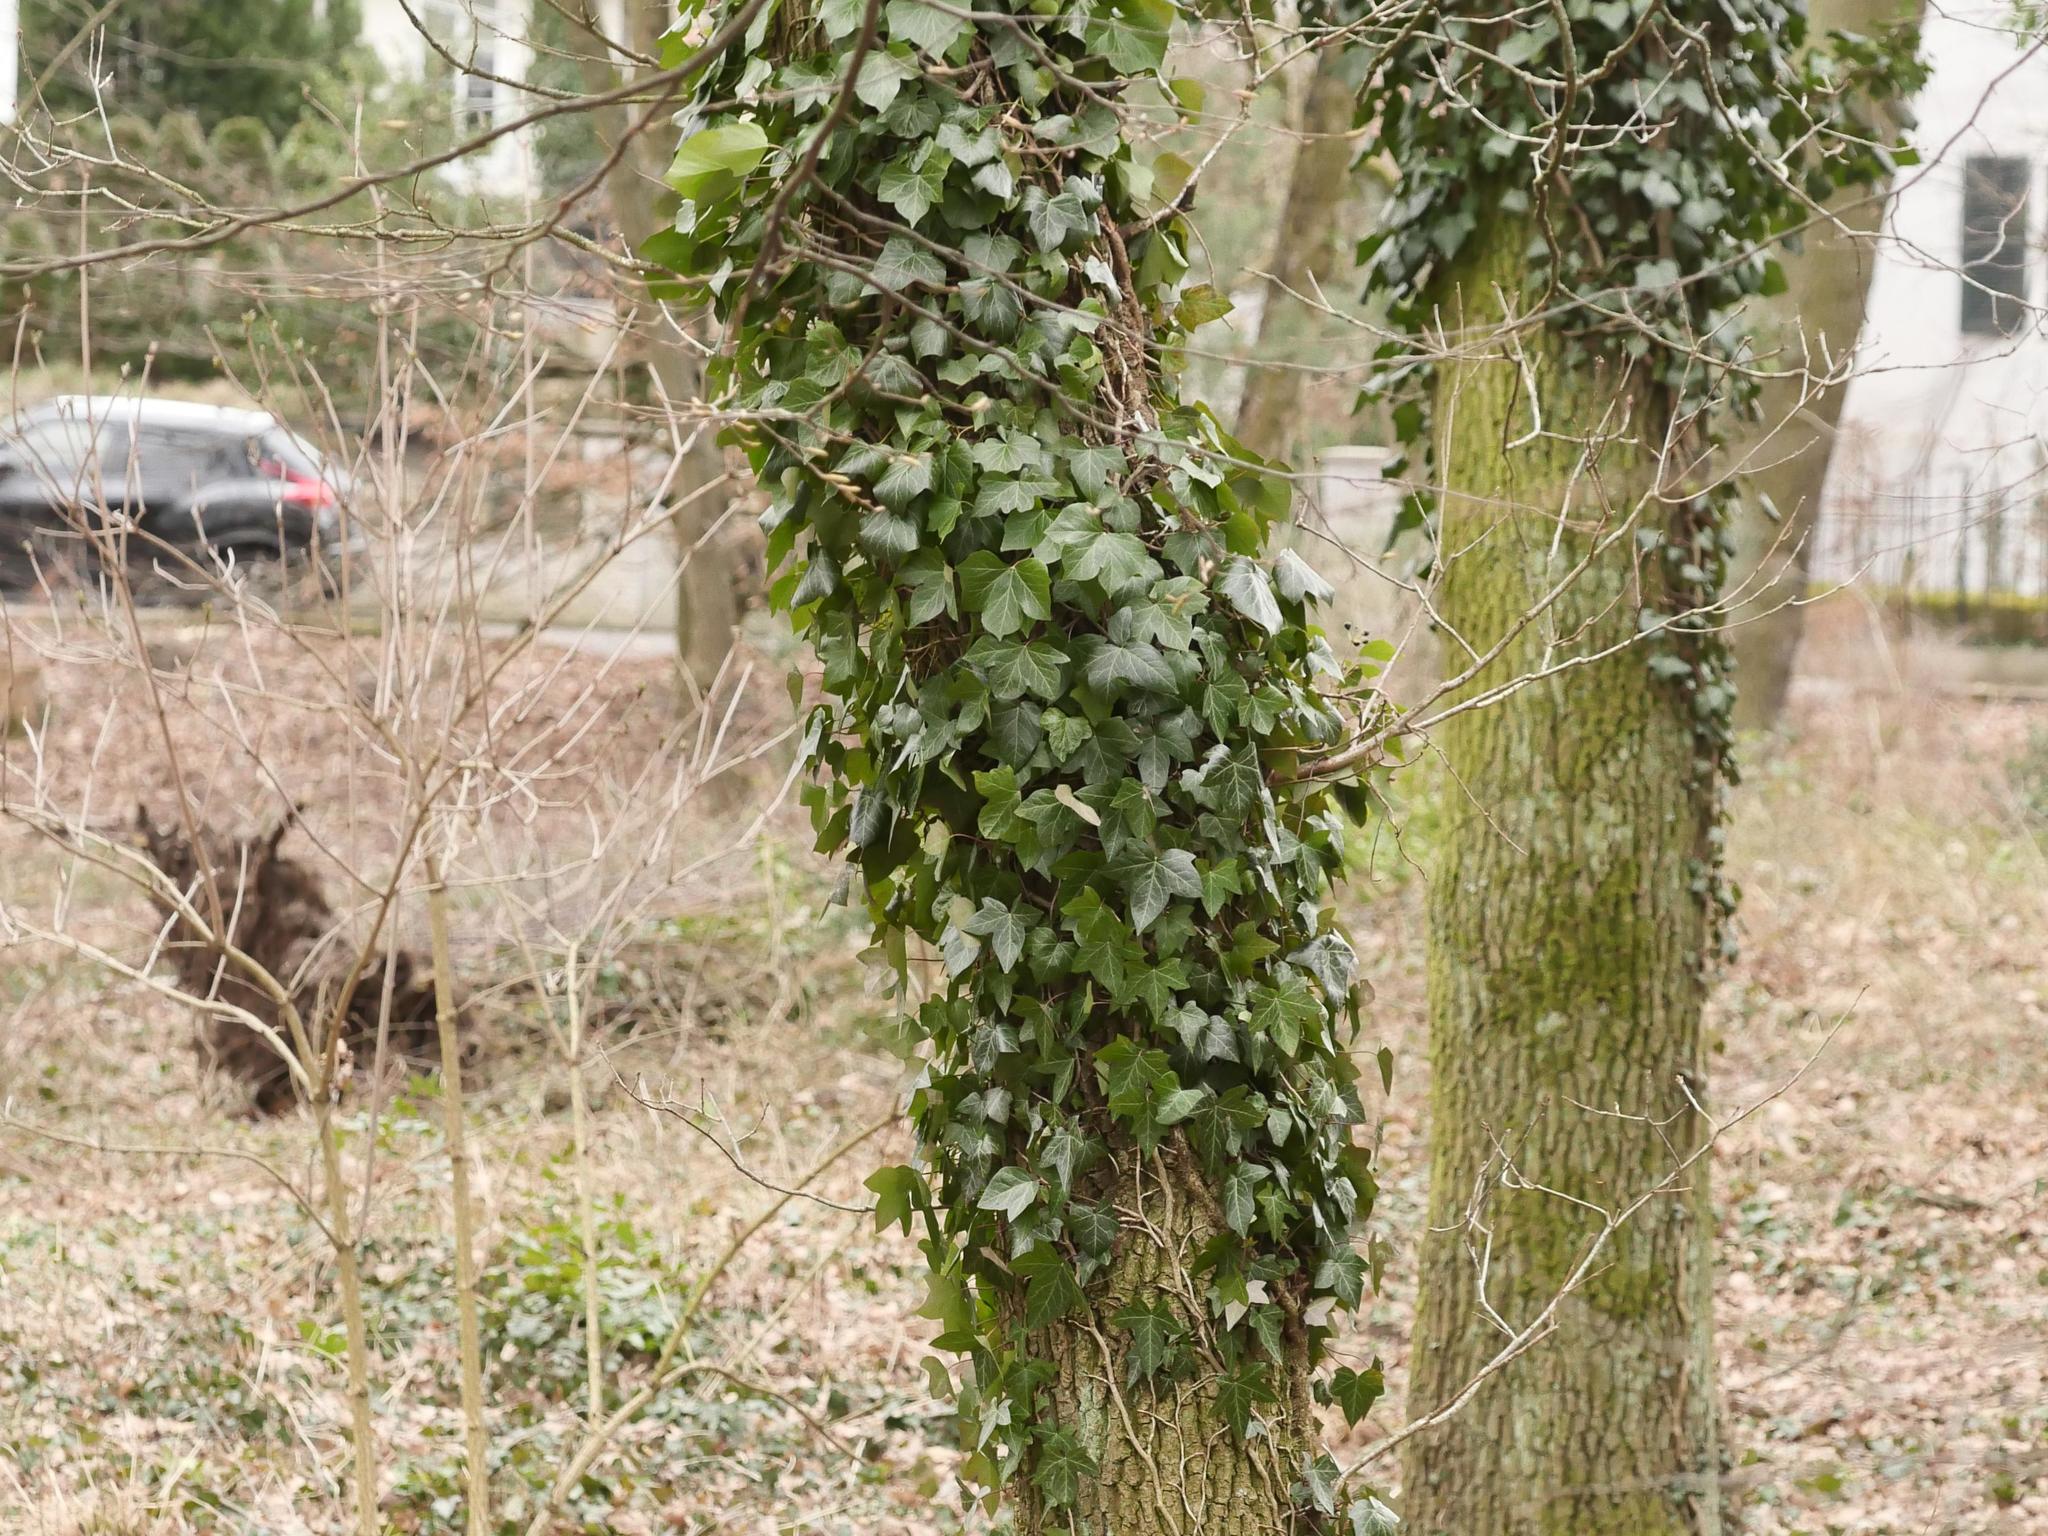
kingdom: Plantae
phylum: Tracheophyta
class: Magnoliopsida
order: Apiales
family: Araliaceae
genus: Hedera
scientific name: Hedera helix
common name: Ivy
